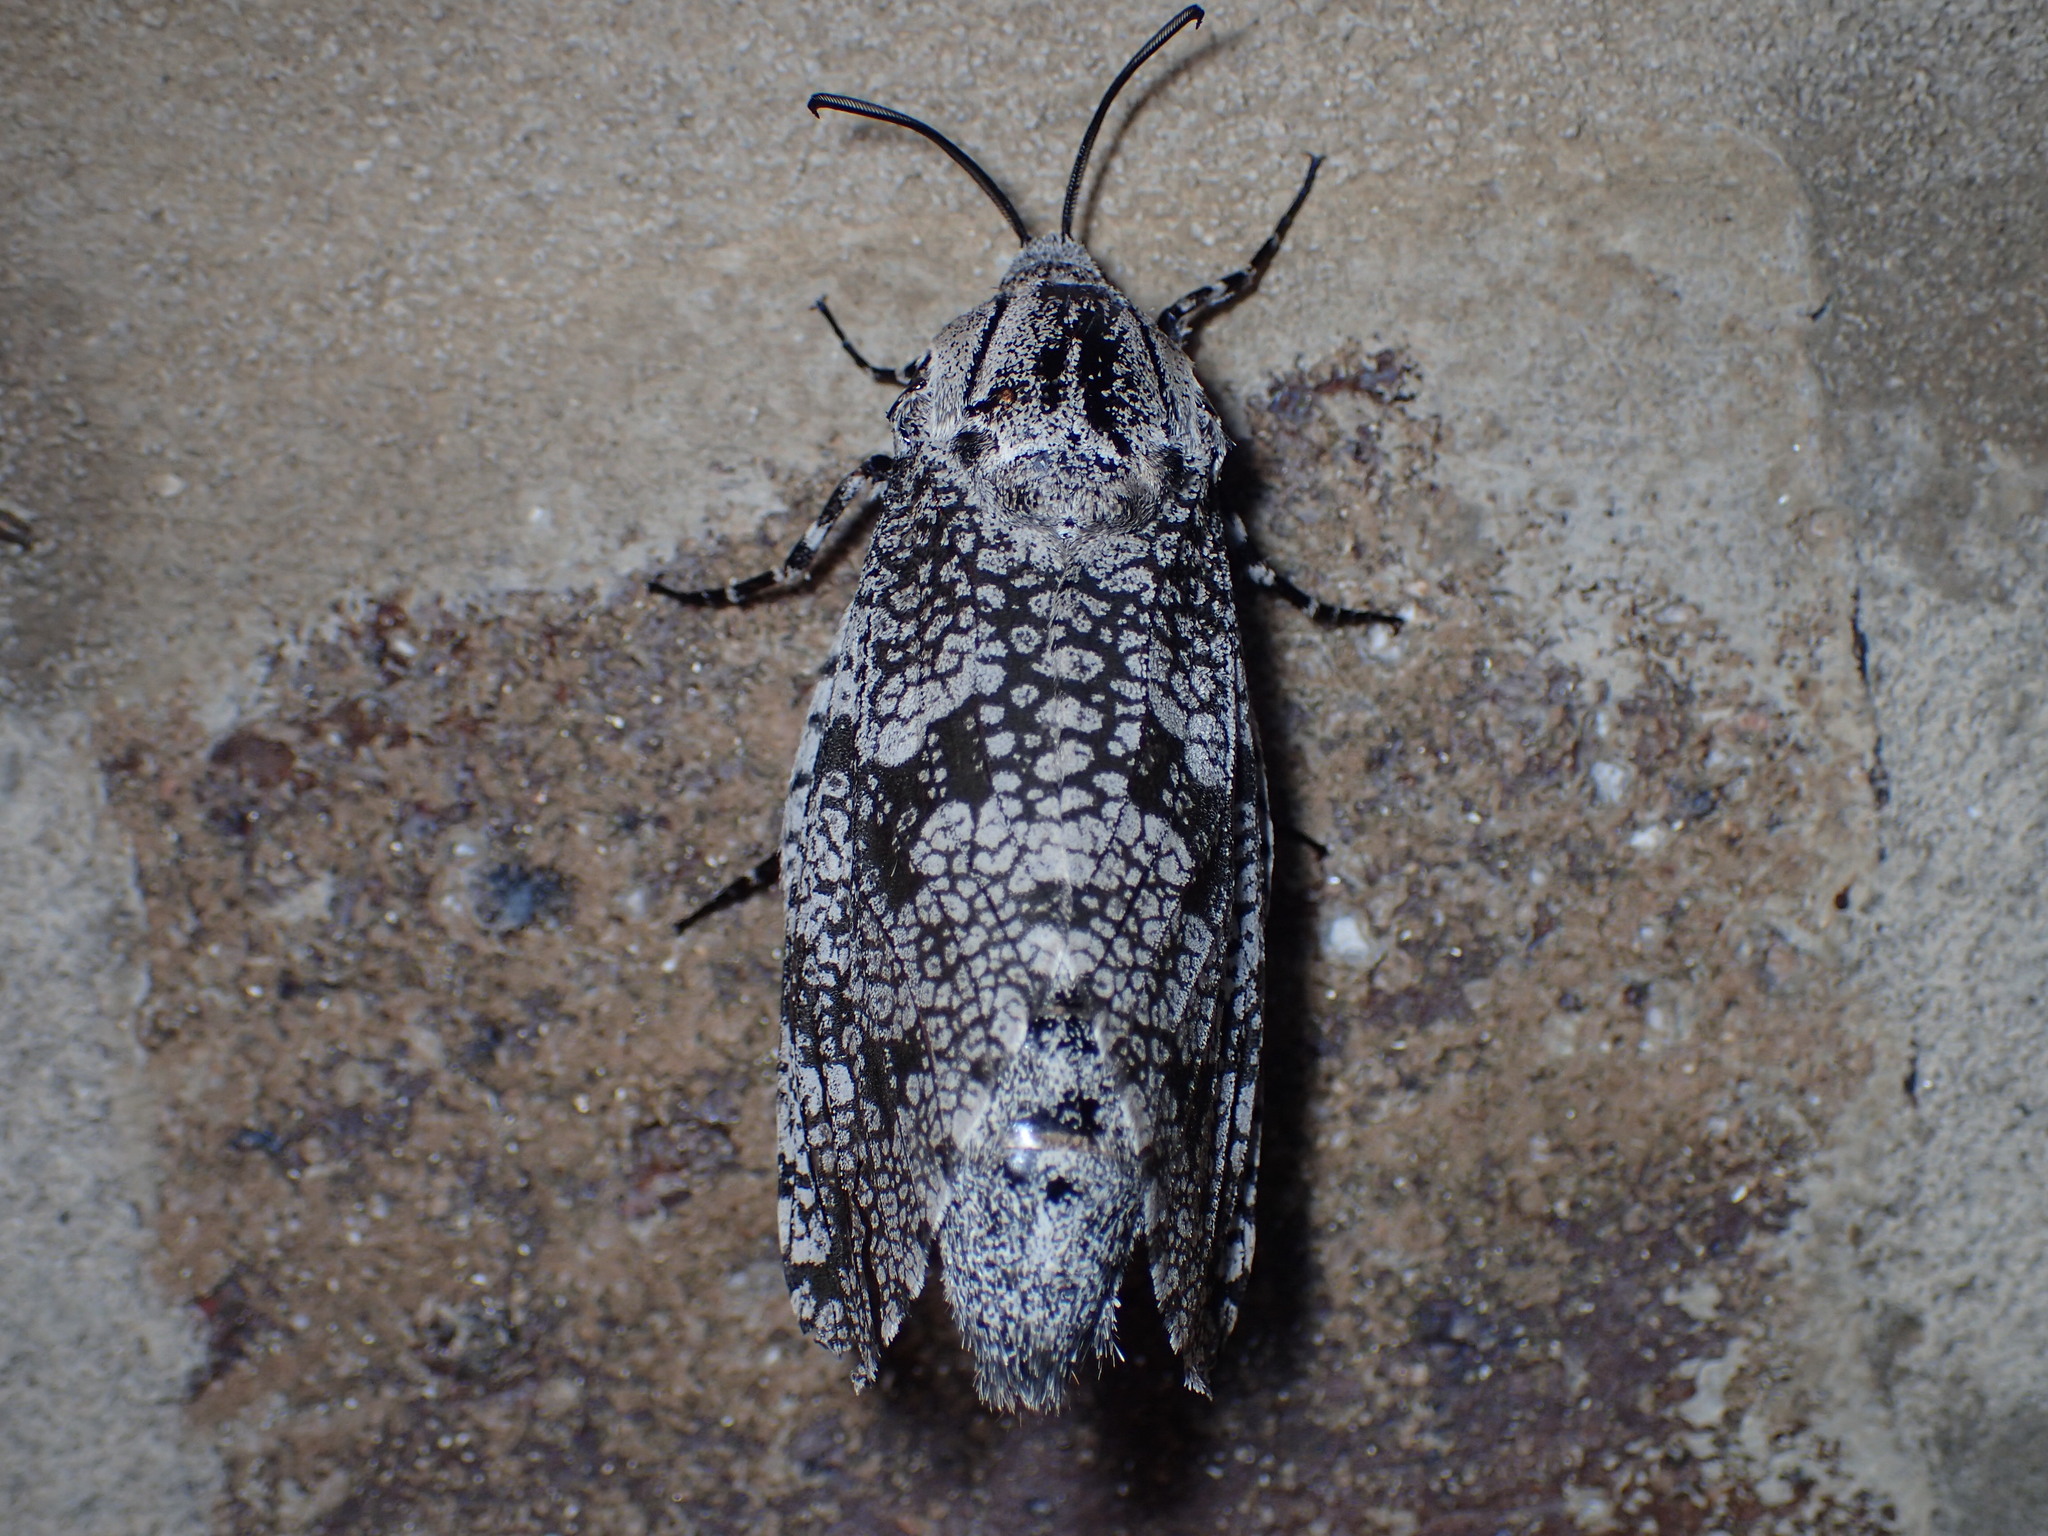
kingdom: Animalia
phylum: Arthropoda
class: Insecta
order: Lepidoptera
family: Cossidae
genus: Prionoxystus
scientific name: Prionoxystus robiniae
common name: Carpenterworm
